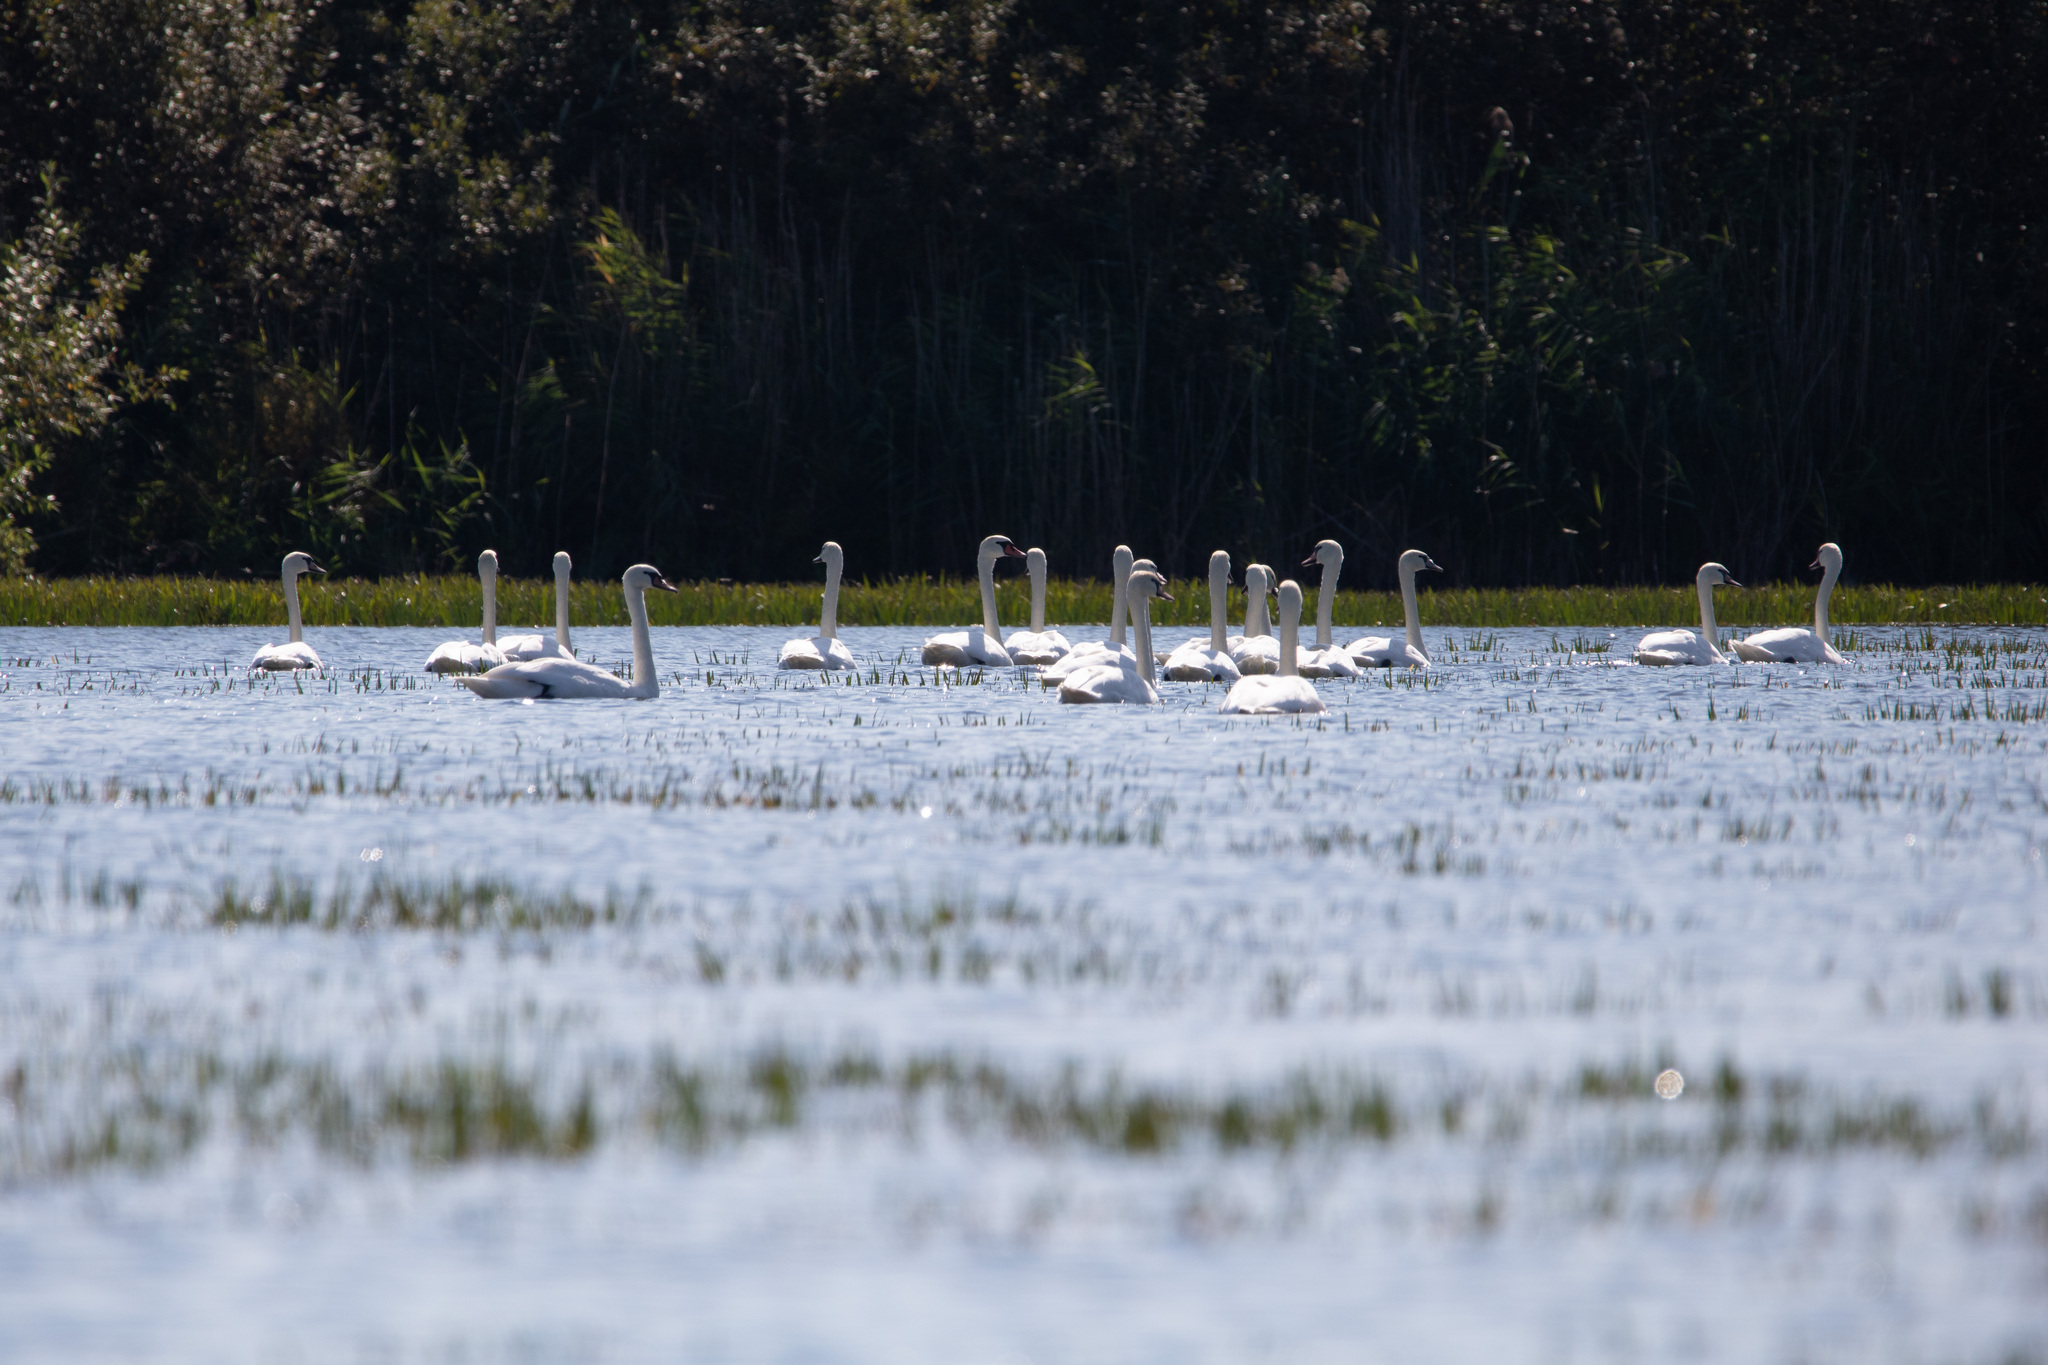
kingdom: Animalia
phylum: Chordata
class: Aves
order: Anseriformes
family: Anatidae
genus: Cygnus
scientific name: Cygnus olor
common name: Mute swan
